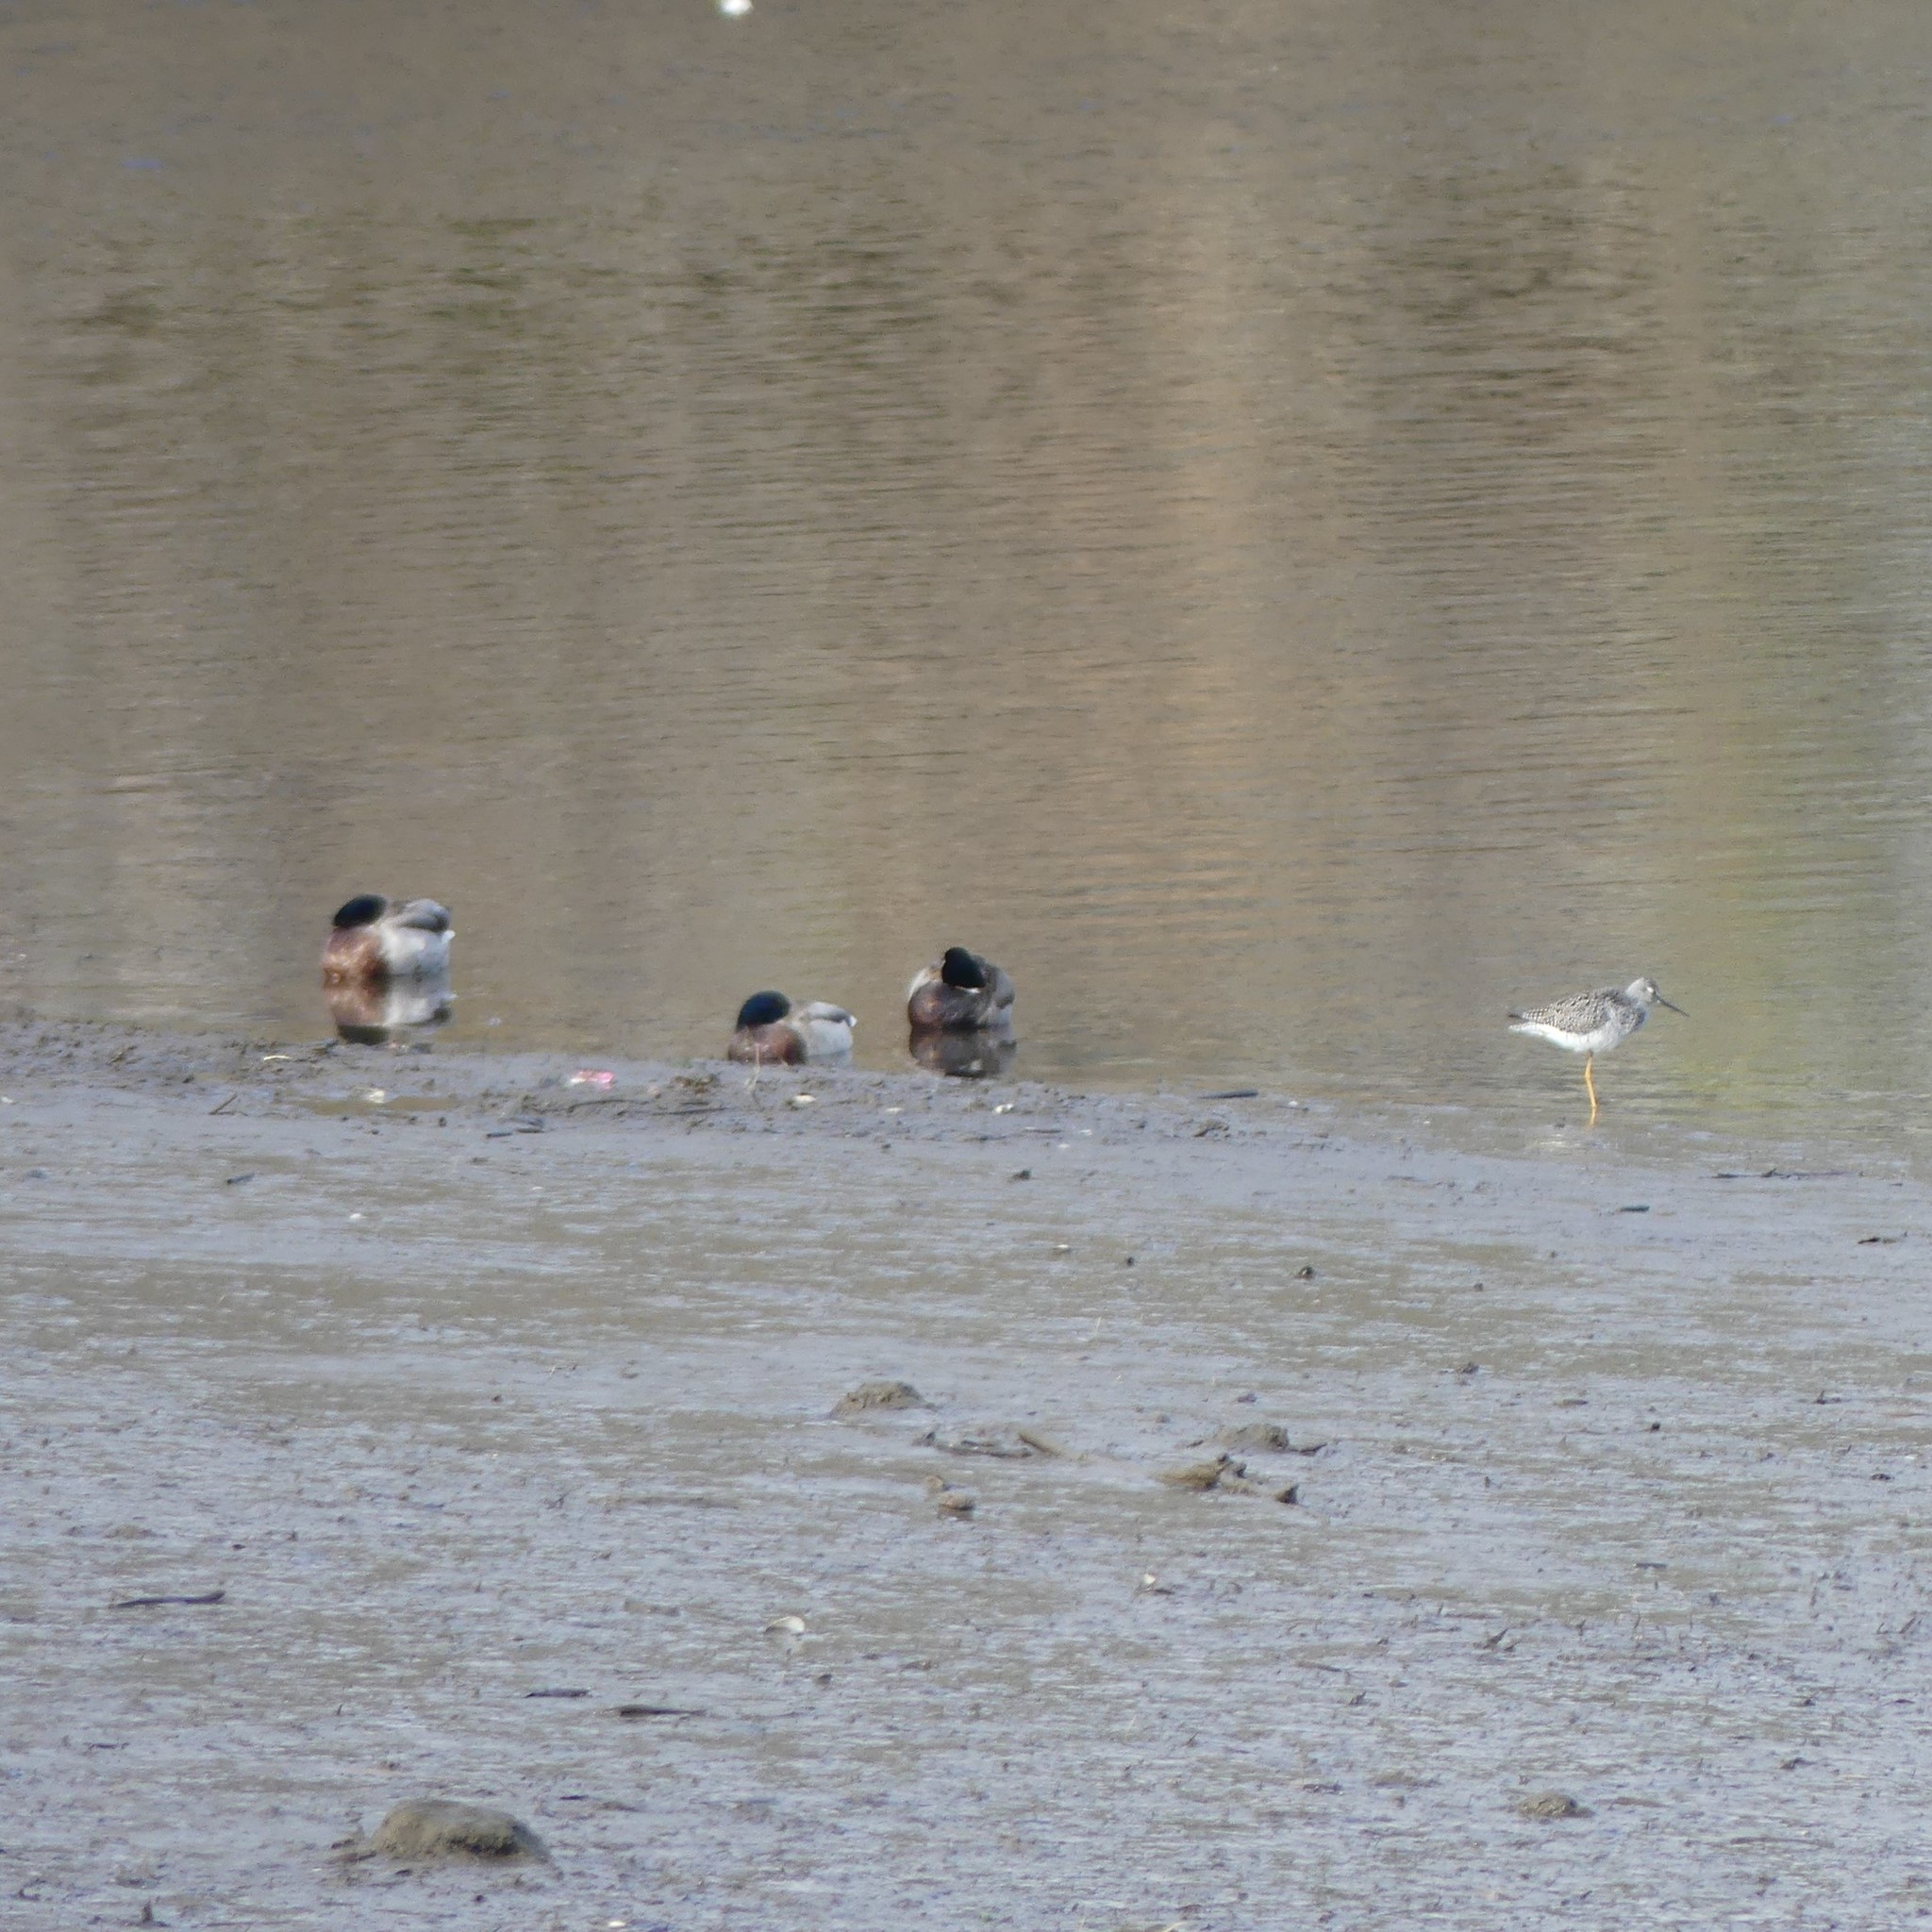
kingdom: Animalia
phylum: Chordata
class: Aves
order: Anseriformes
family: Anatidae
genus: Anas
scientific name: Anas platyrhynchos
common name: Mallard
